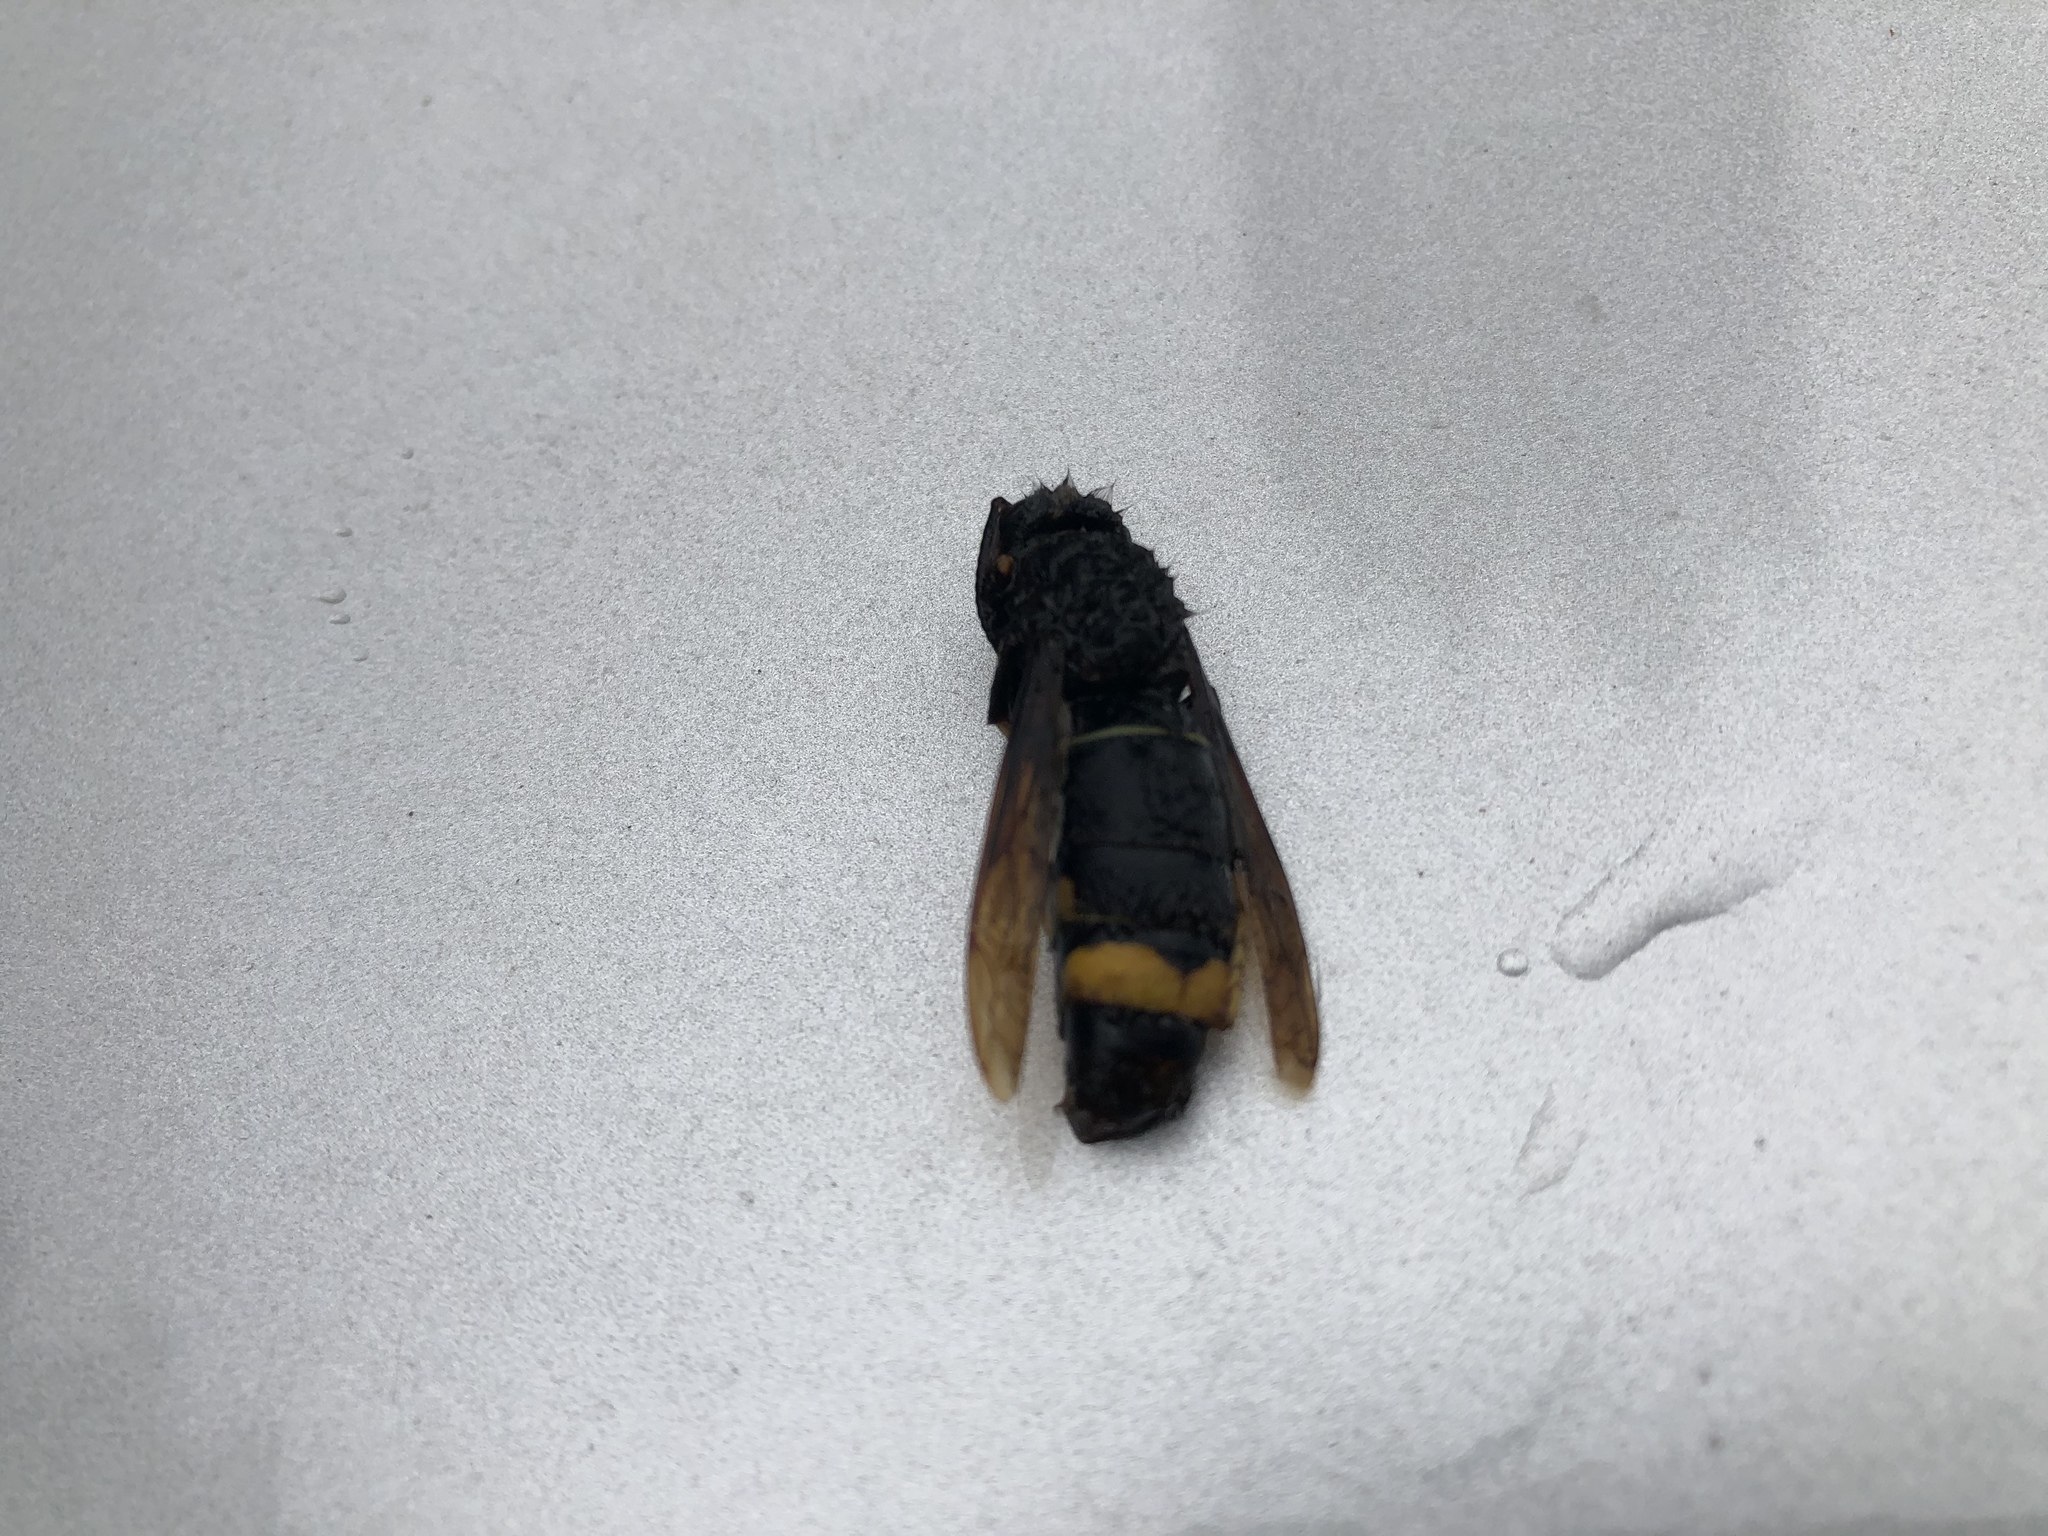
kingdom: Animalia
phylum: Arthropoda
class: Insecta
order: Hymenoptera
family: Vespidae
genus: Vespa
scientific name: Vespa velutina
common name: Asian hornet
